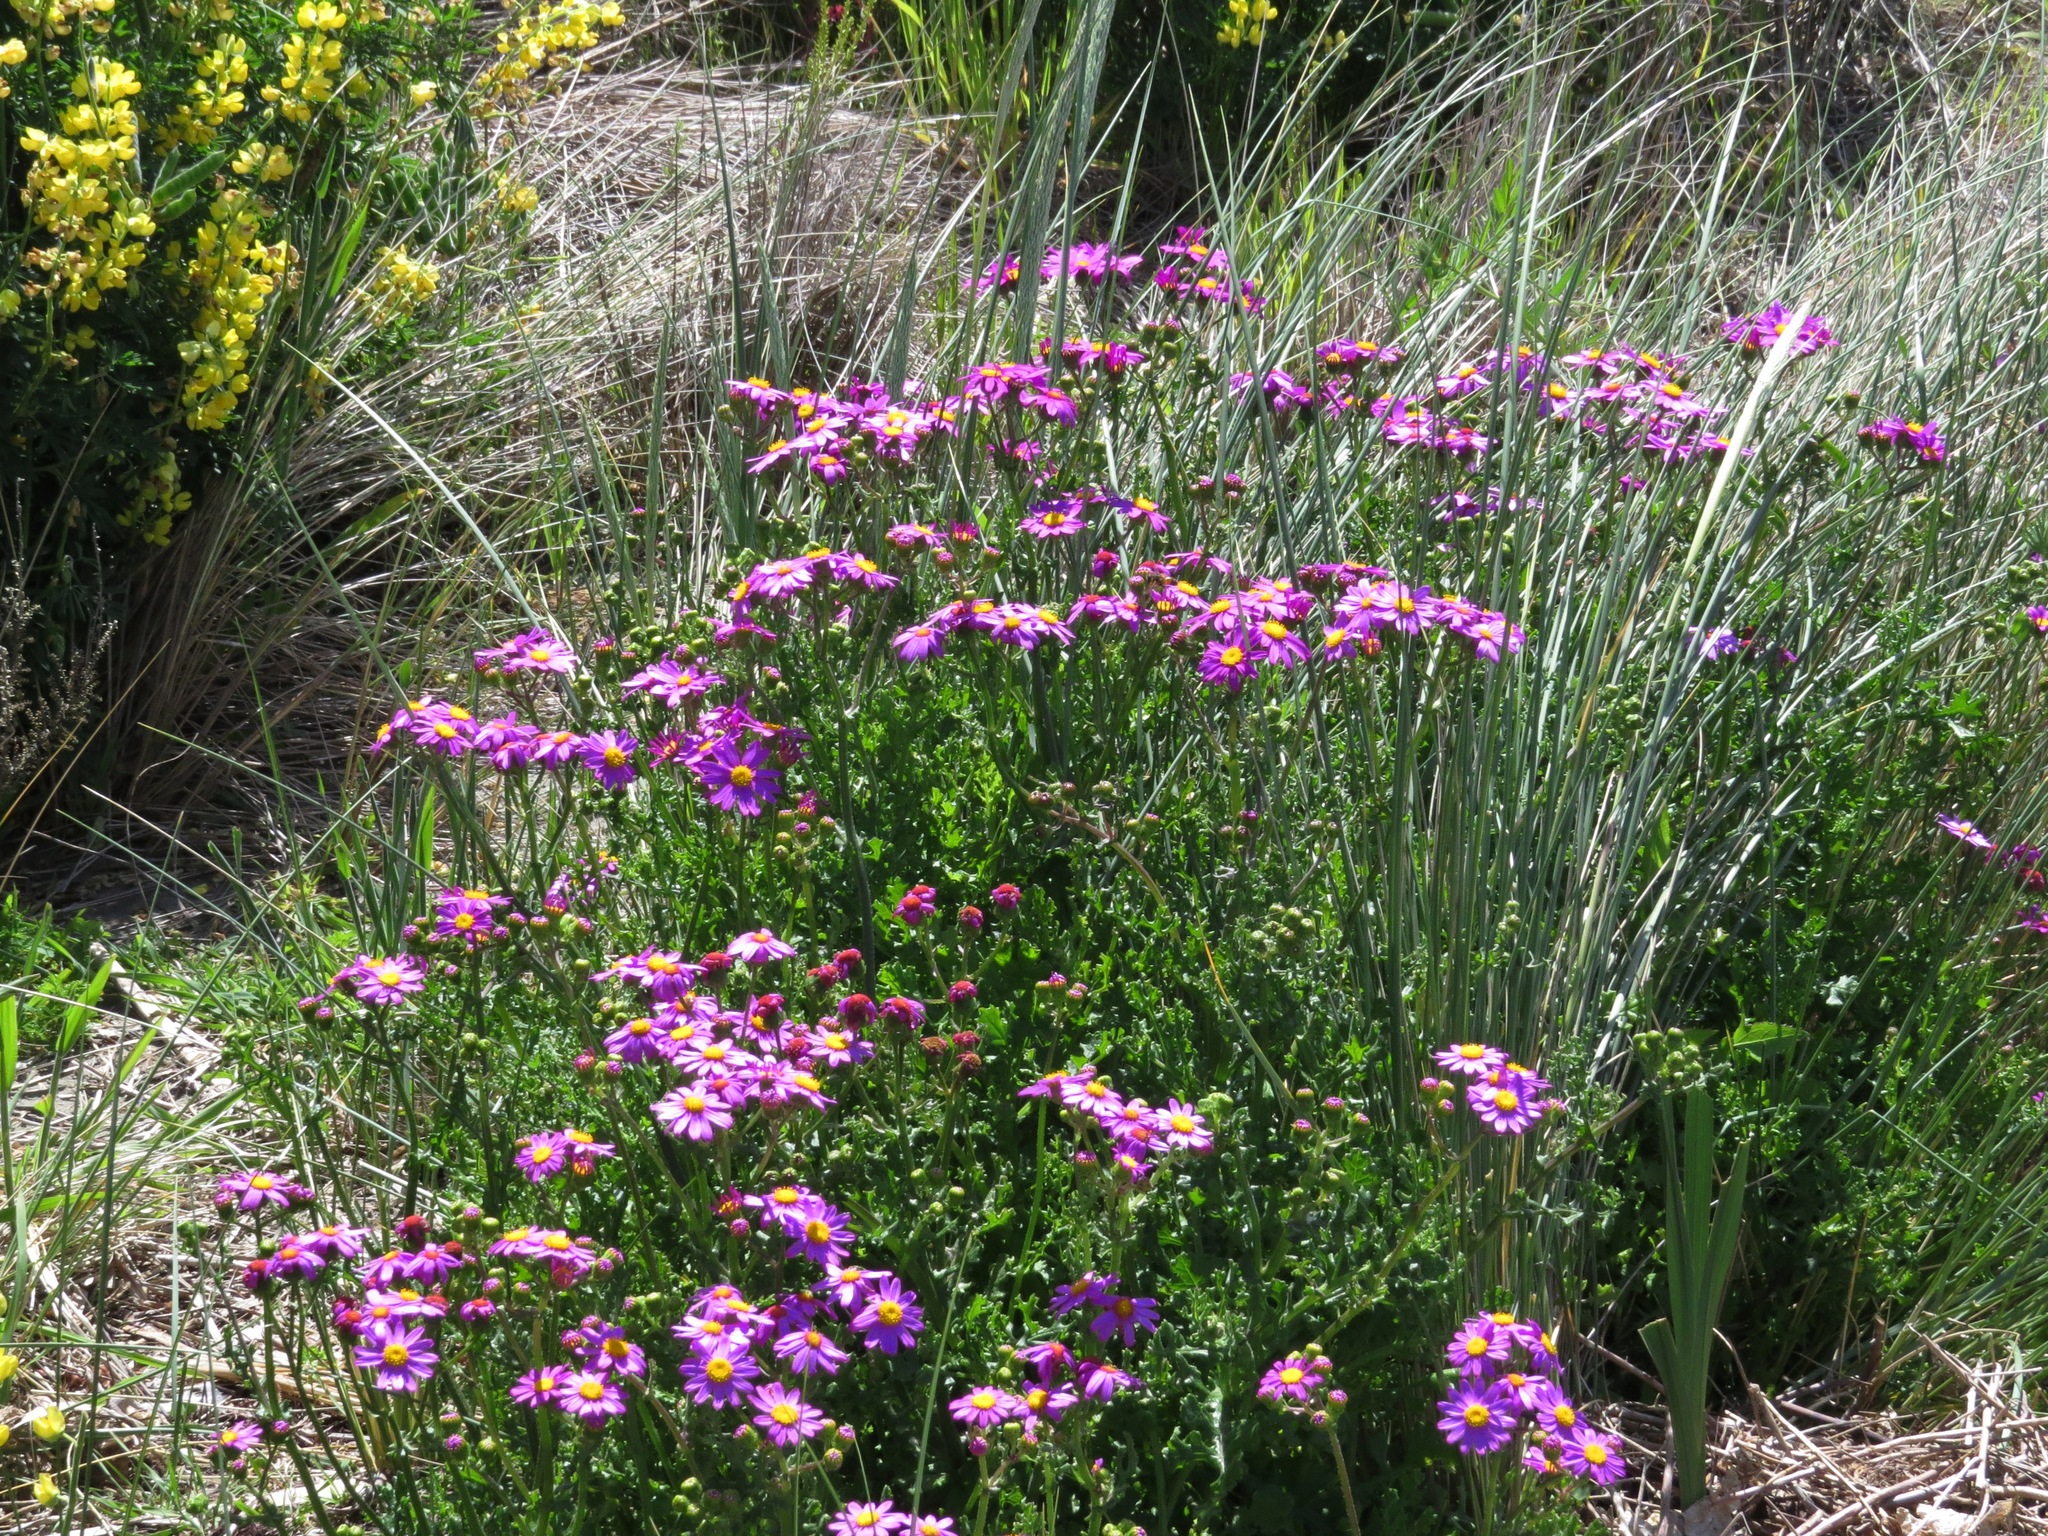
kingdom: Plantae
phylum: Tracheophyta
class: Magnoliopsida
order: Asterales
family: Asteraceae
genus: Senecio
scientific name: Senecio glastifolius
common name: Woad-leaved ragwort
